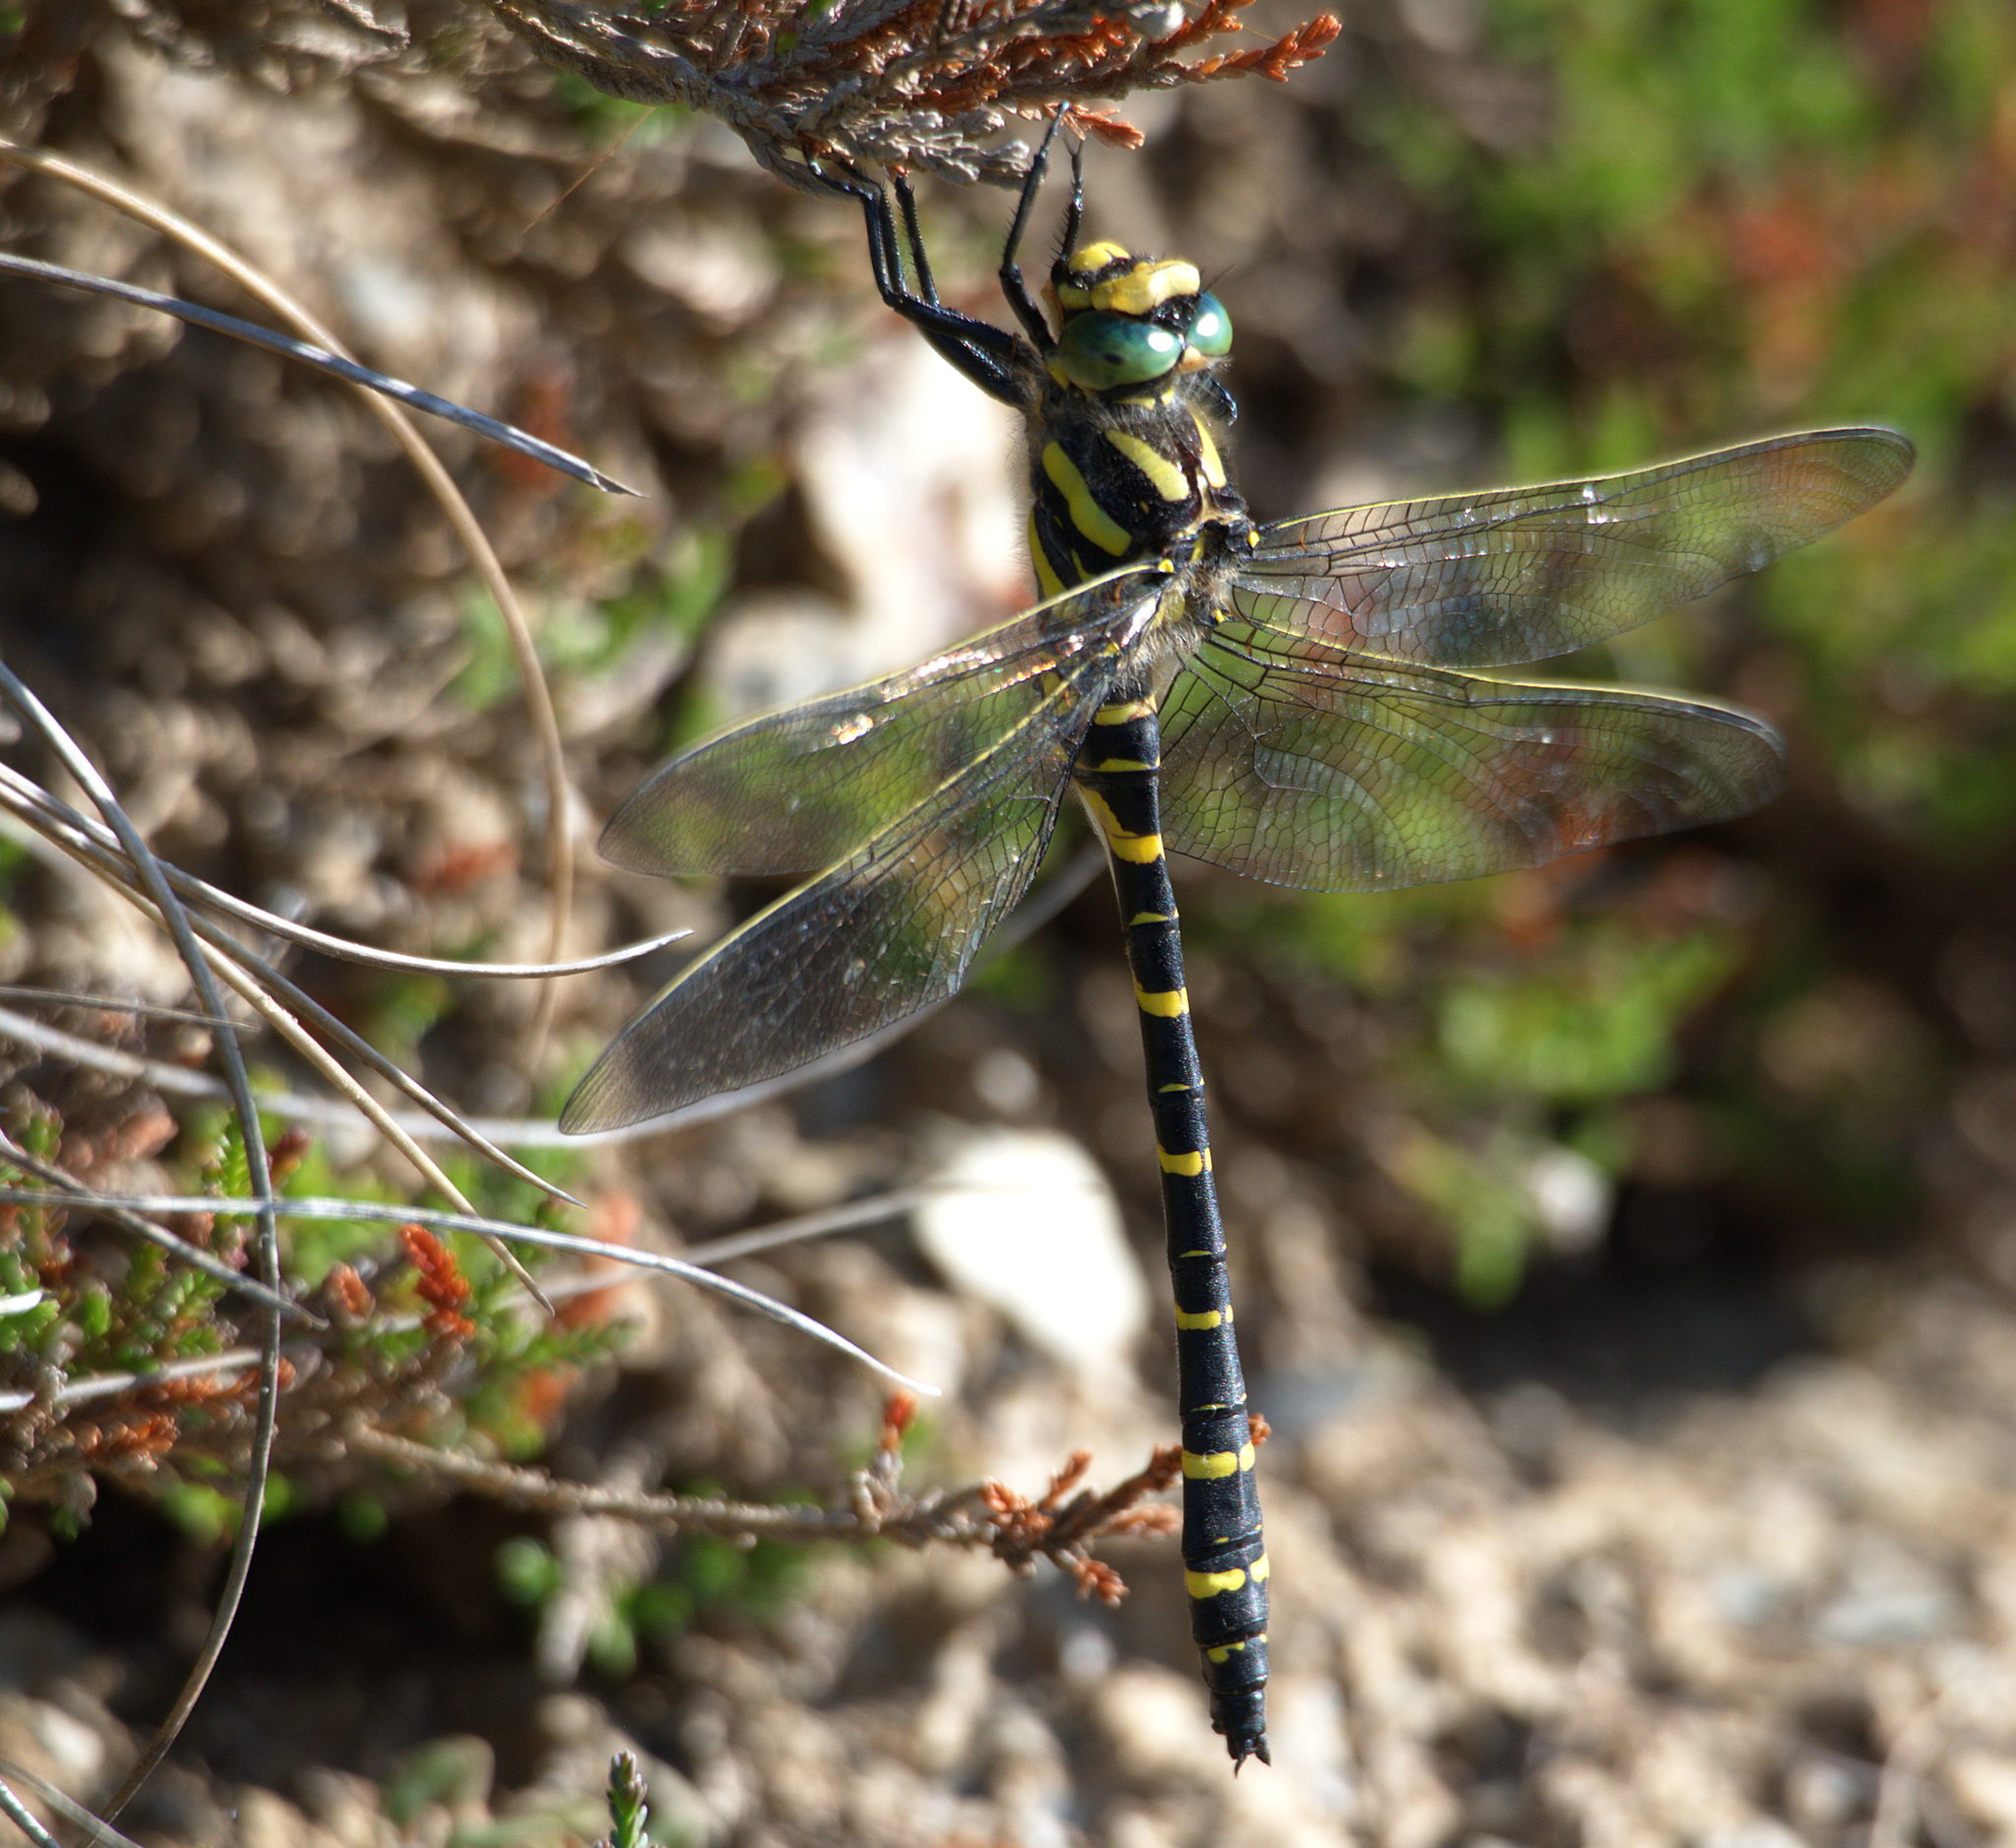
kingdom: Animalia
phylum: Arthropoda
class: Insecta
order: Odonata
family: Cordulegastridae
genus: Cordulegaster
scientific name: Cordulegaster boltonii
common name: Golden-ringed dragonfly
